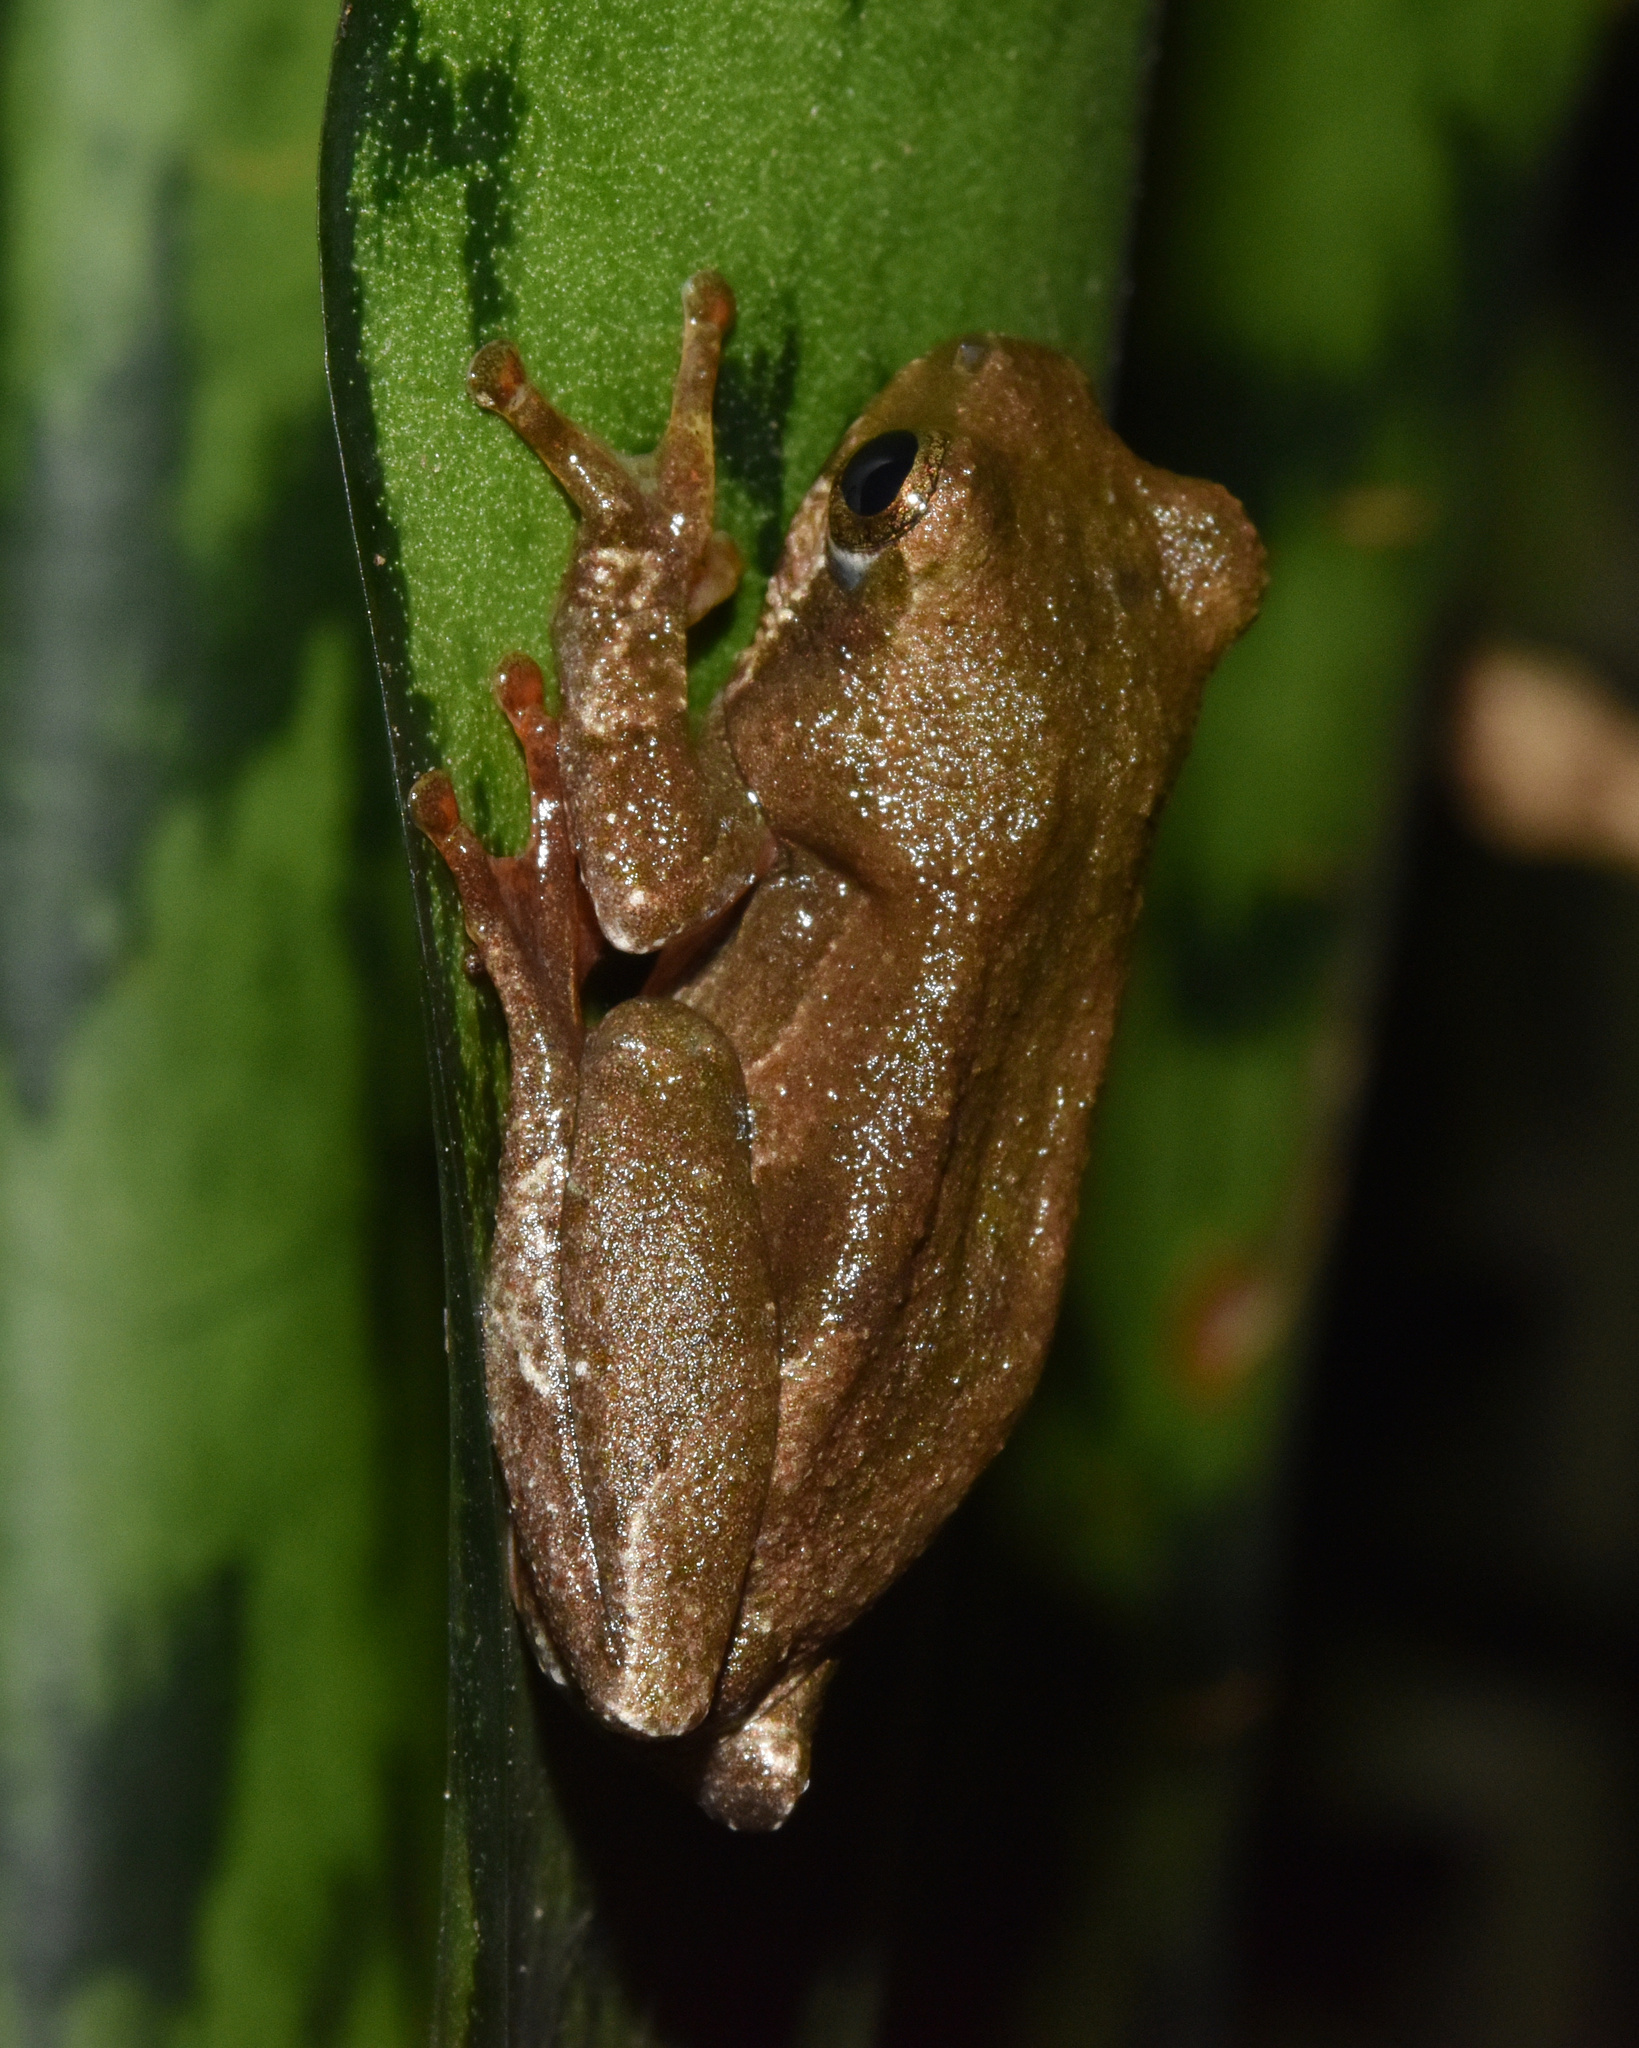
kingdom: Animalia
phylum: Chordata
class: Amphibia
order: Anura
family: Hyperoliidae
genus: Hyperolius
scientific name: Hyperolius marmoratus
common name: Painted reed frog
